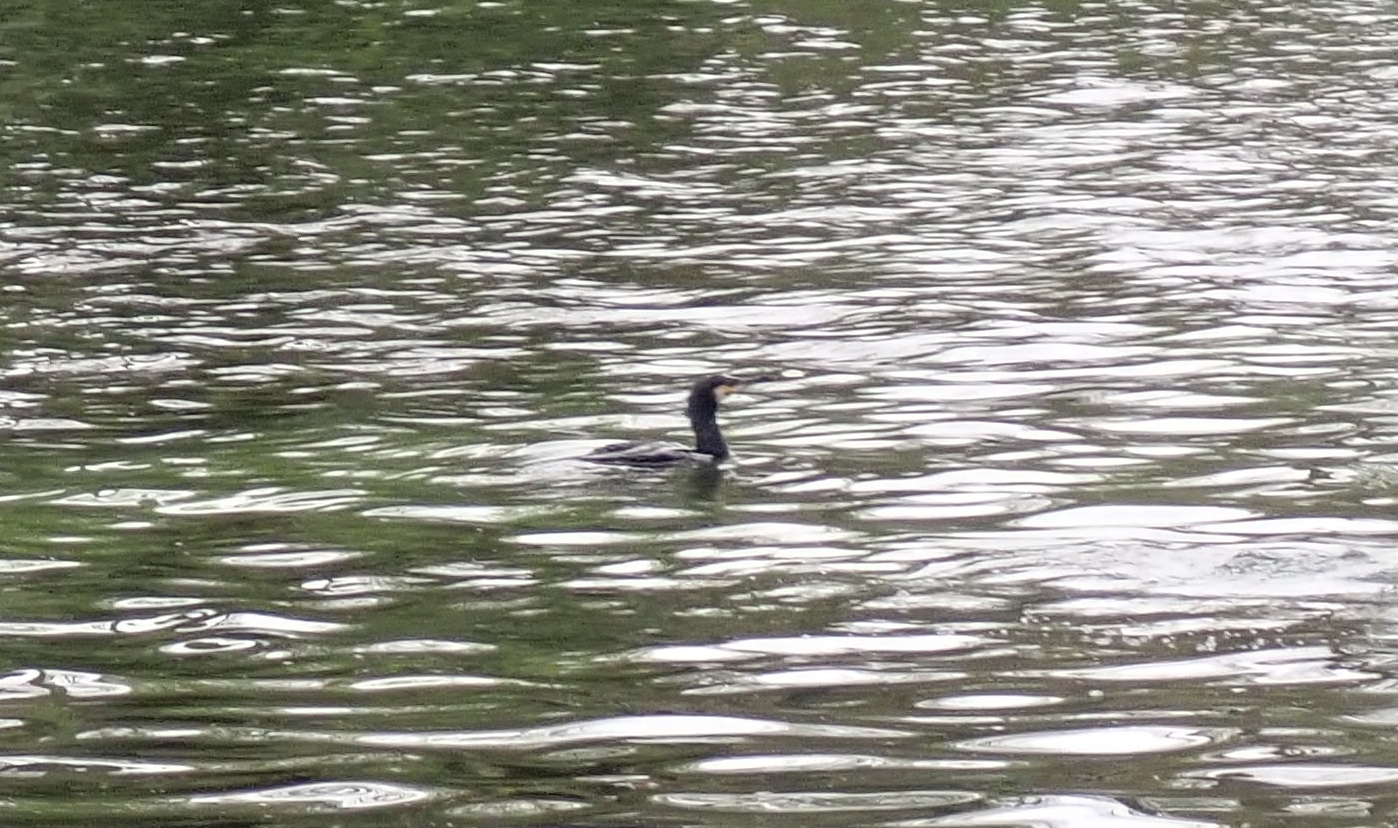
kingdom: Animalia
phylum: Chordata
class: Aves
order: Suliformes
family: Phalacrocoracidae
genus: Phalacrocorax
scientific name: Phalacrocorax carbo
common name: Great cormorant
